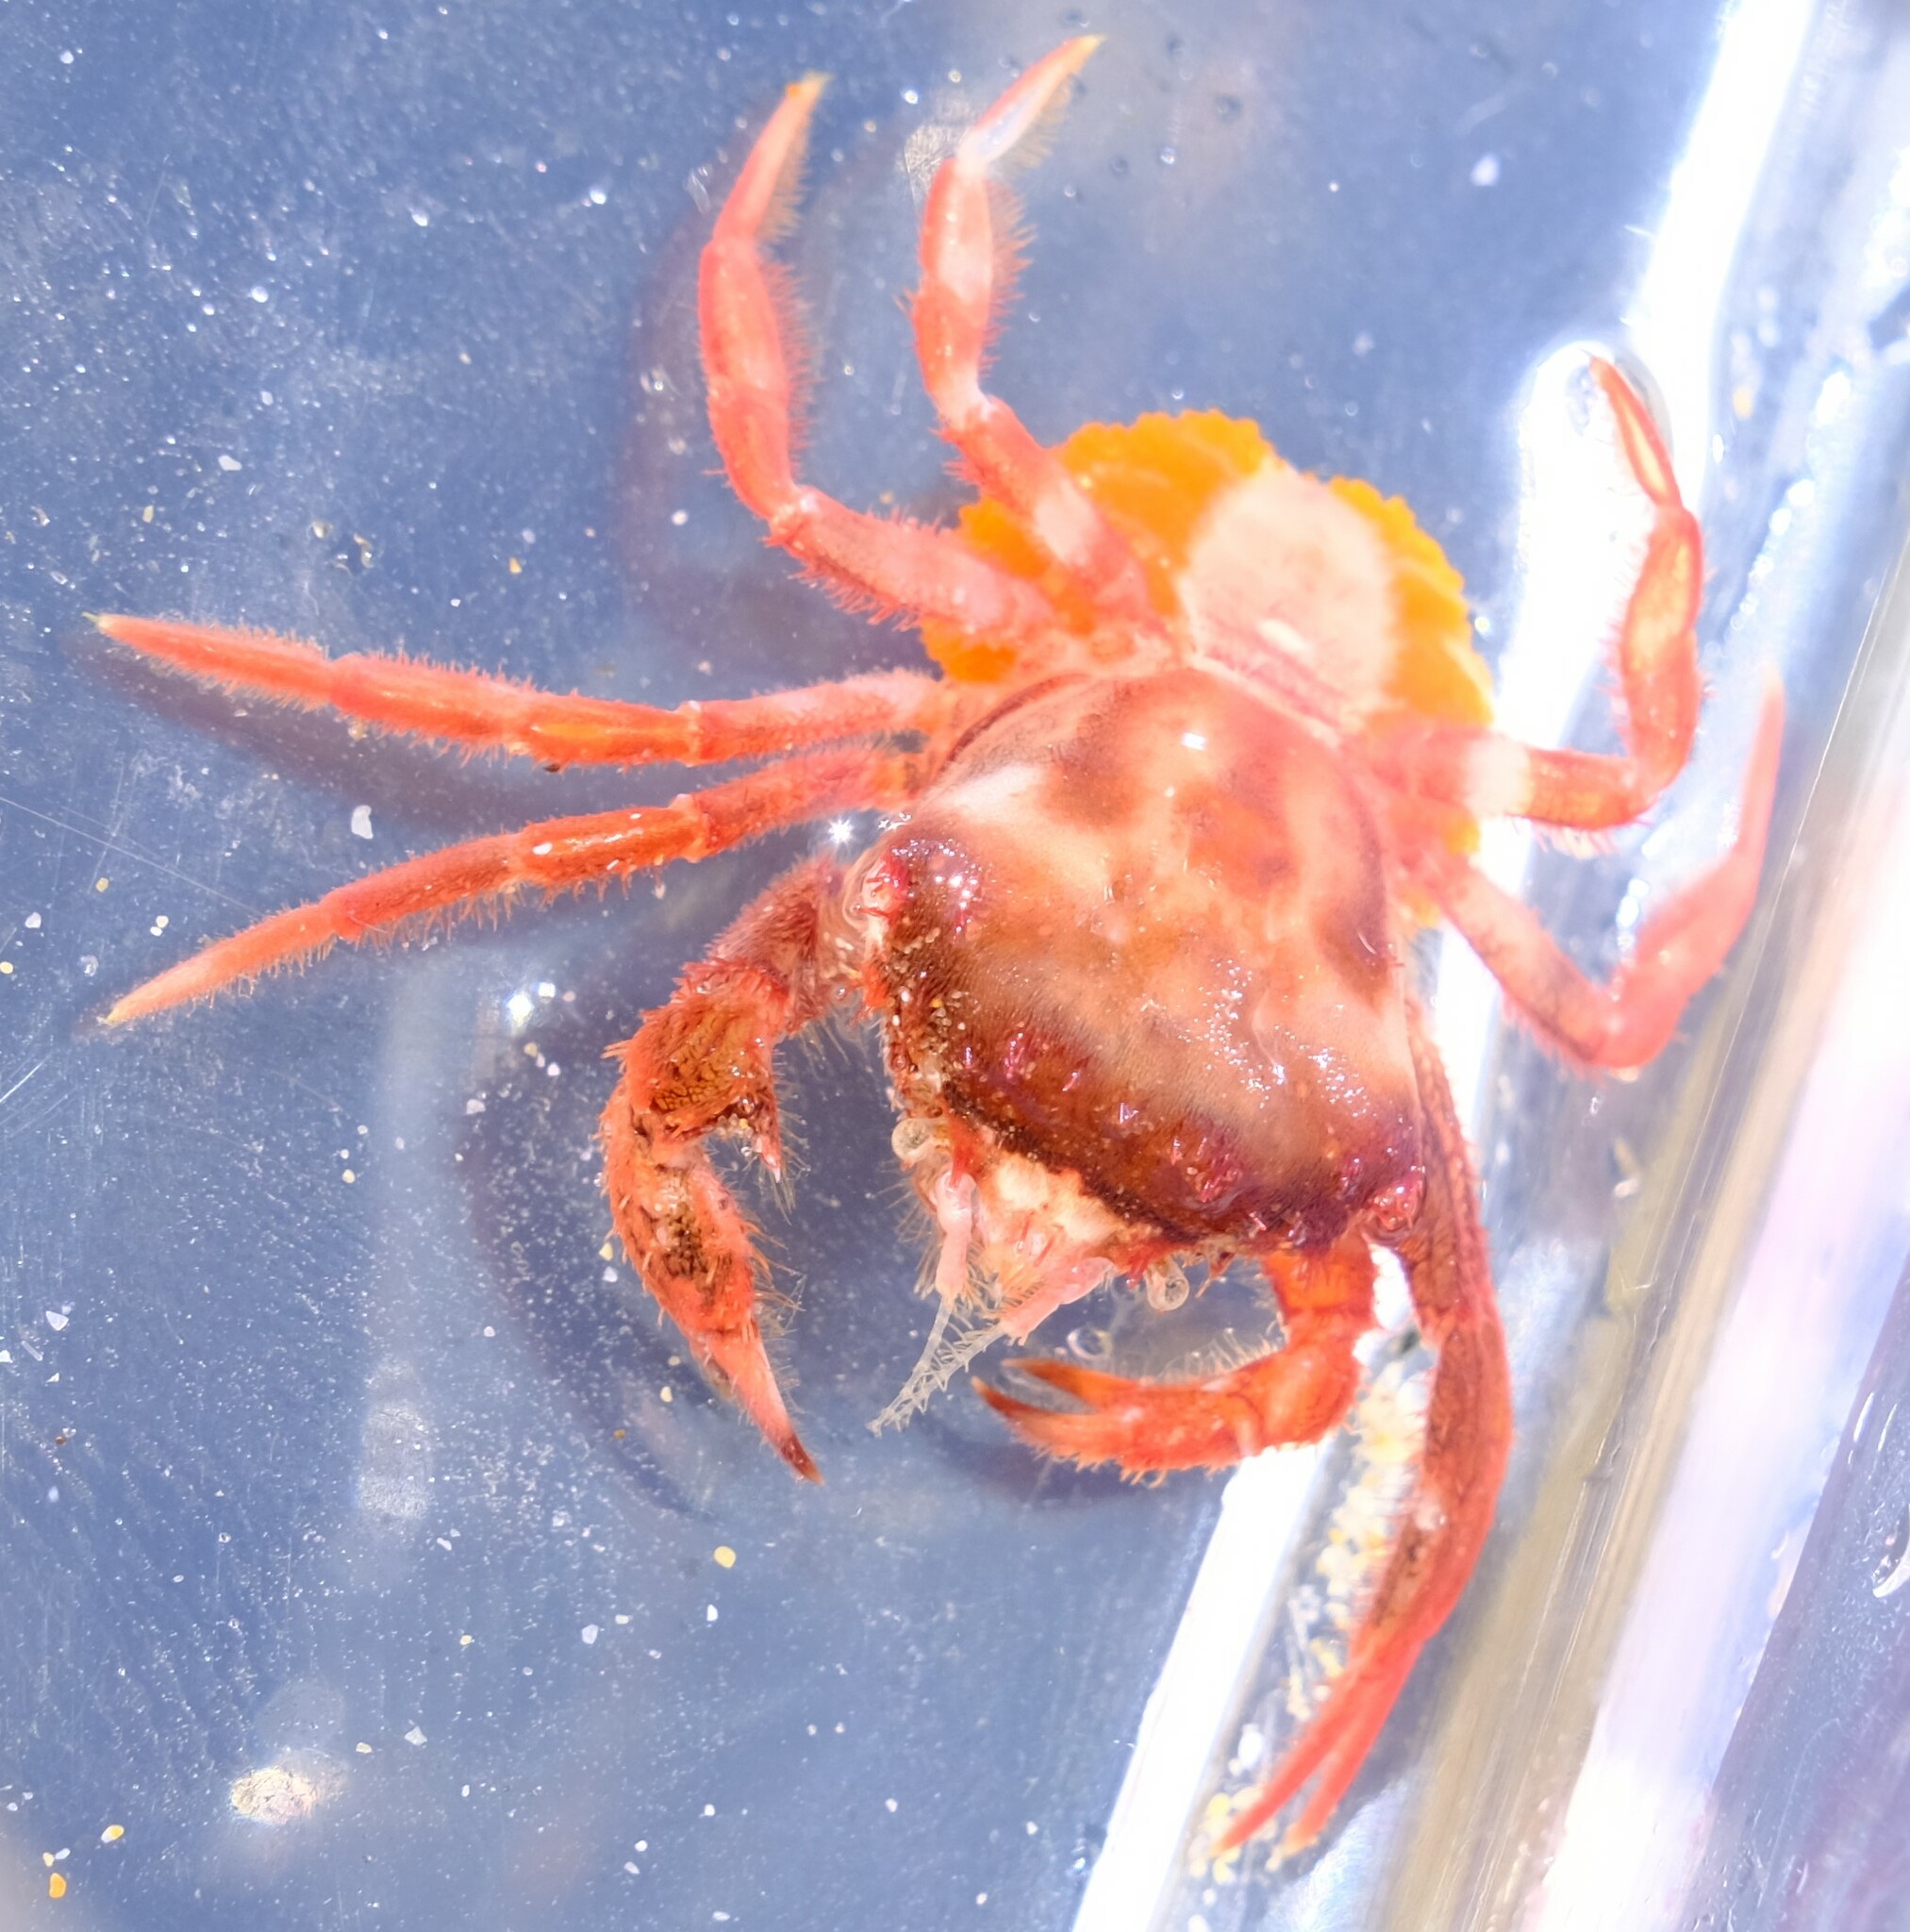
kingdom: Animalia
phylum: Arthropoda
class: Malacostraca
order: Decapoda
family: Inachidae
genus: Dumea
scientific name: Dumea latipes
